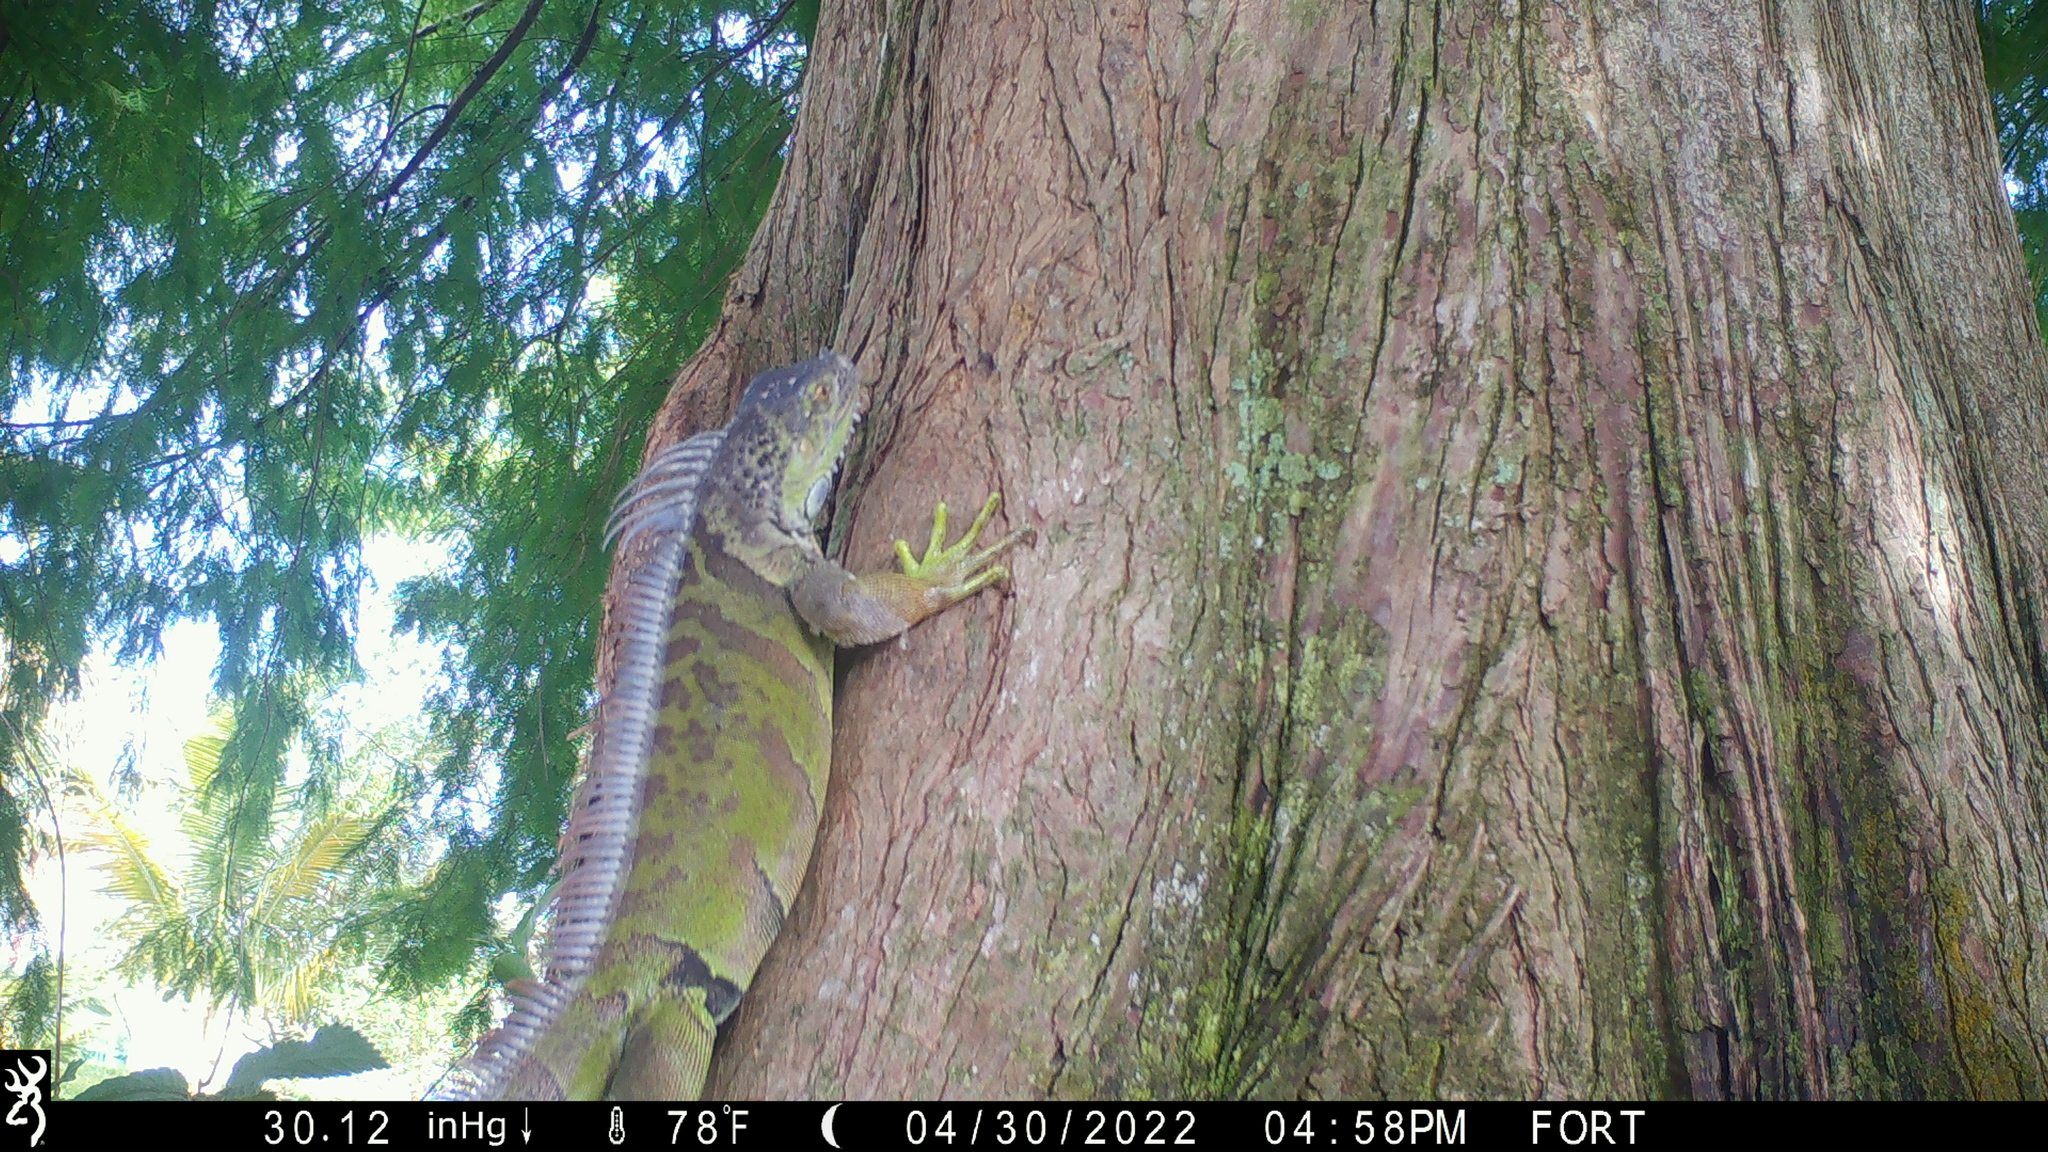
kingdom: Animalia
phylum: Chordata
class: Squamata
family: Iguanidae
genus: Iguana
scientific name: Iguana iguana
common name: Green iguana
